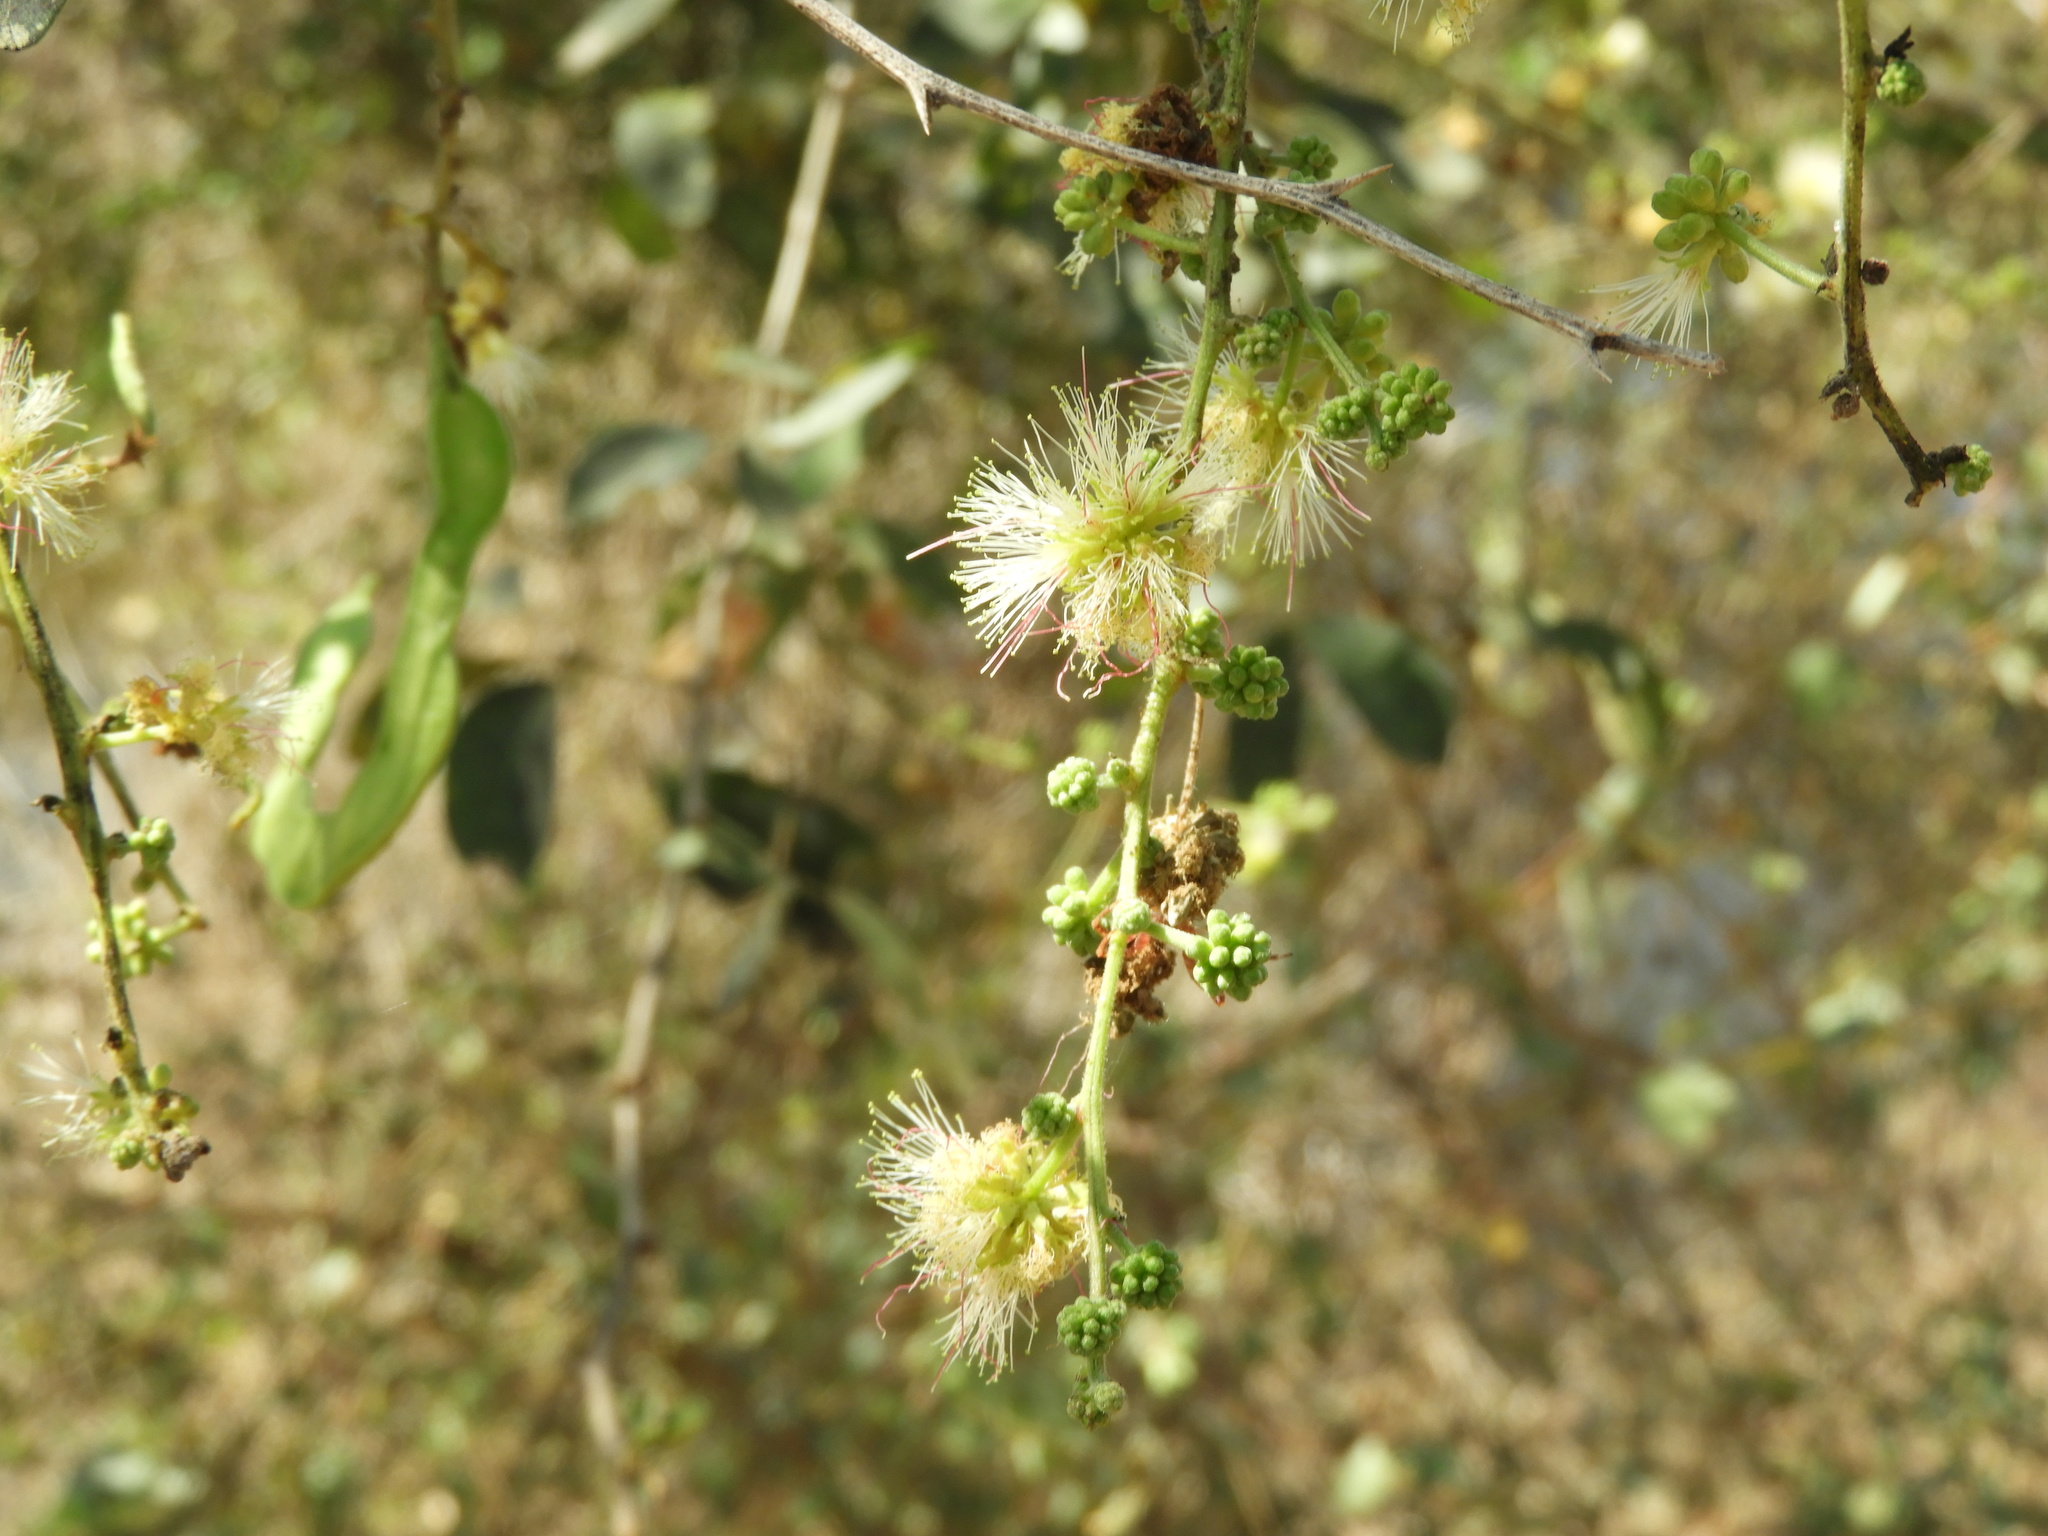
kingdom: Plantae
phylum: Tracheophyta
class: Magnoliopsida
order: Fabales
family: Fabaceae
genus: Pithecellobium
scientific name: Pithecellobium dulce
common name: Monkeypod
